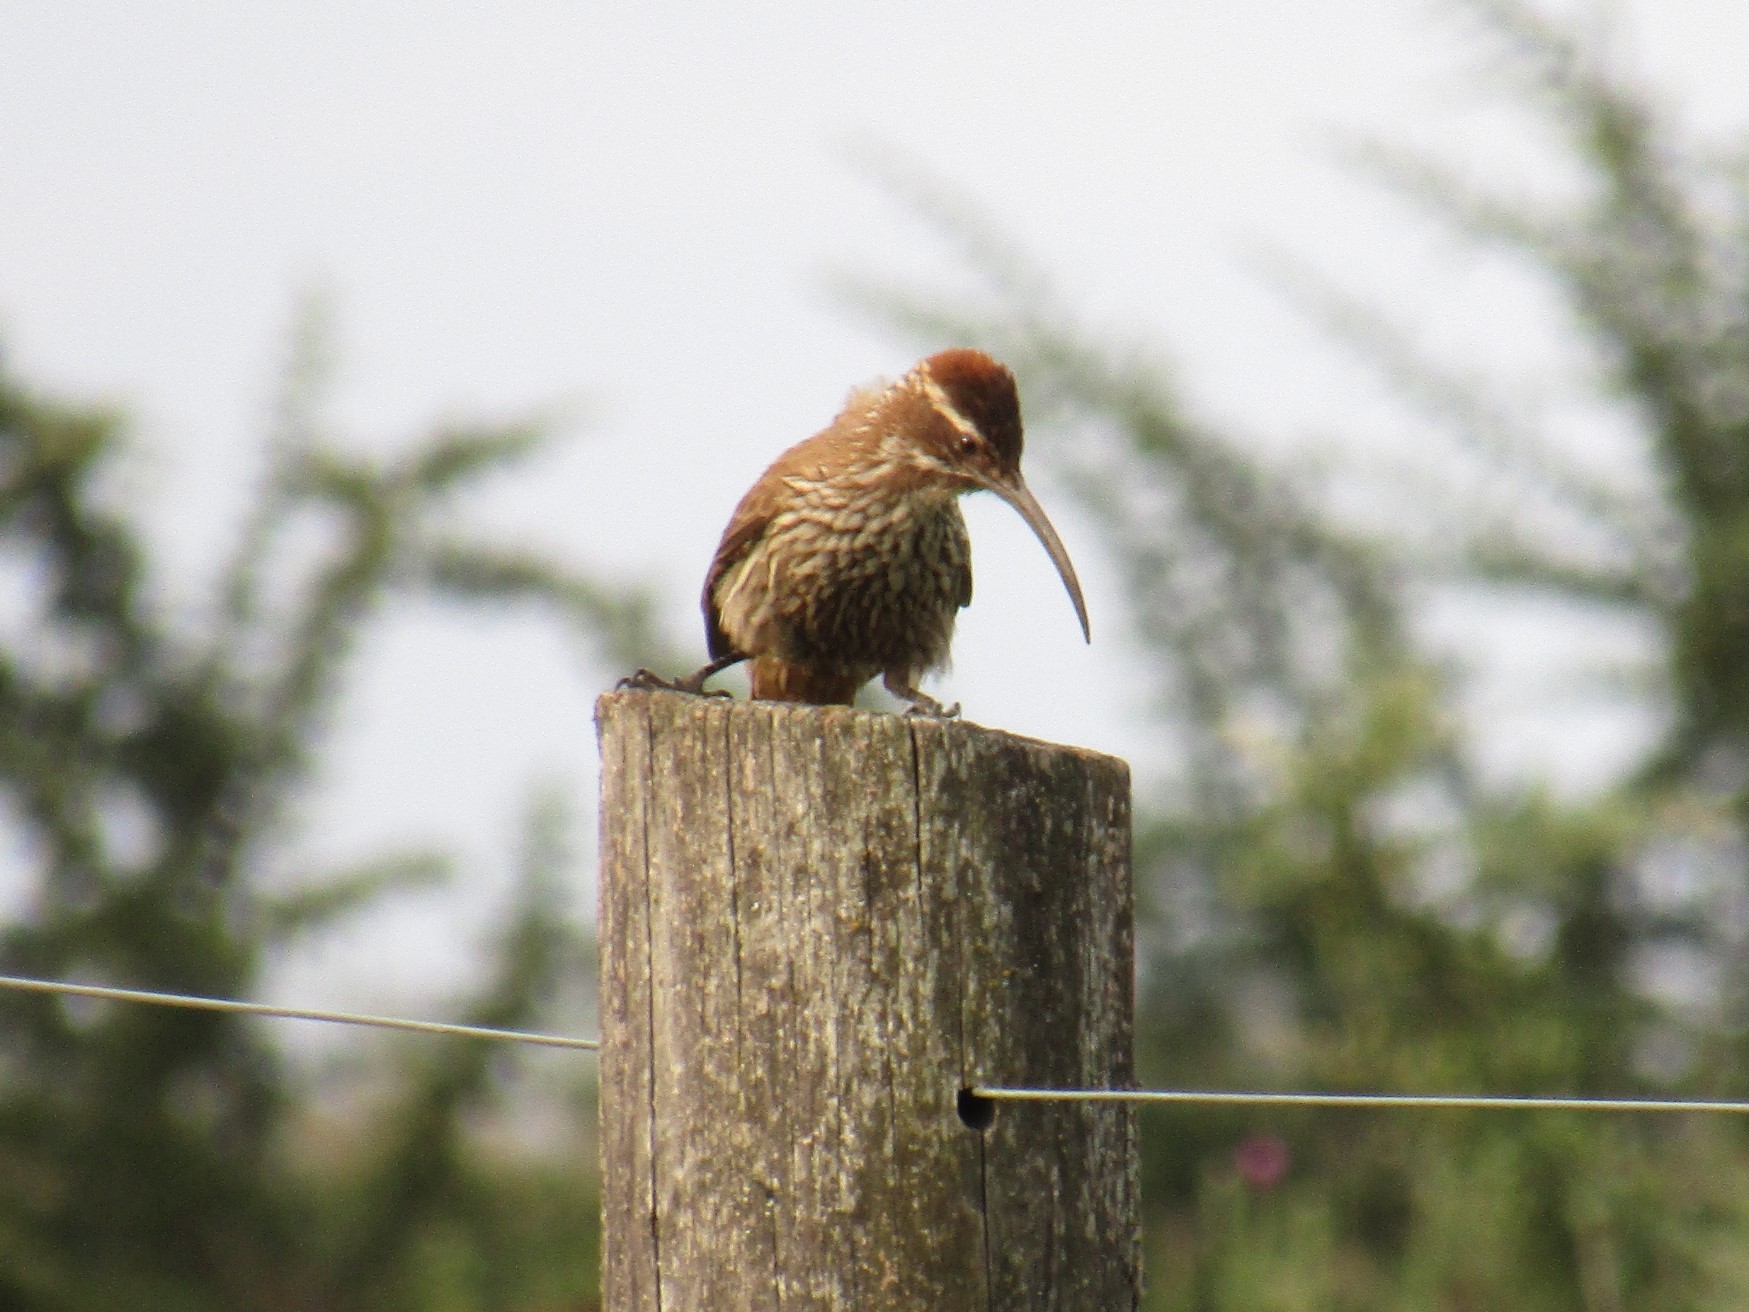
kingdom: Animalia
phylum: Chordata
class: Aves
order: Passeriformes
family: Furnariidae
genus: Drymornis
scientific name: Drymornis bridgesii
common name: Scimitar-billed woodcreeper
